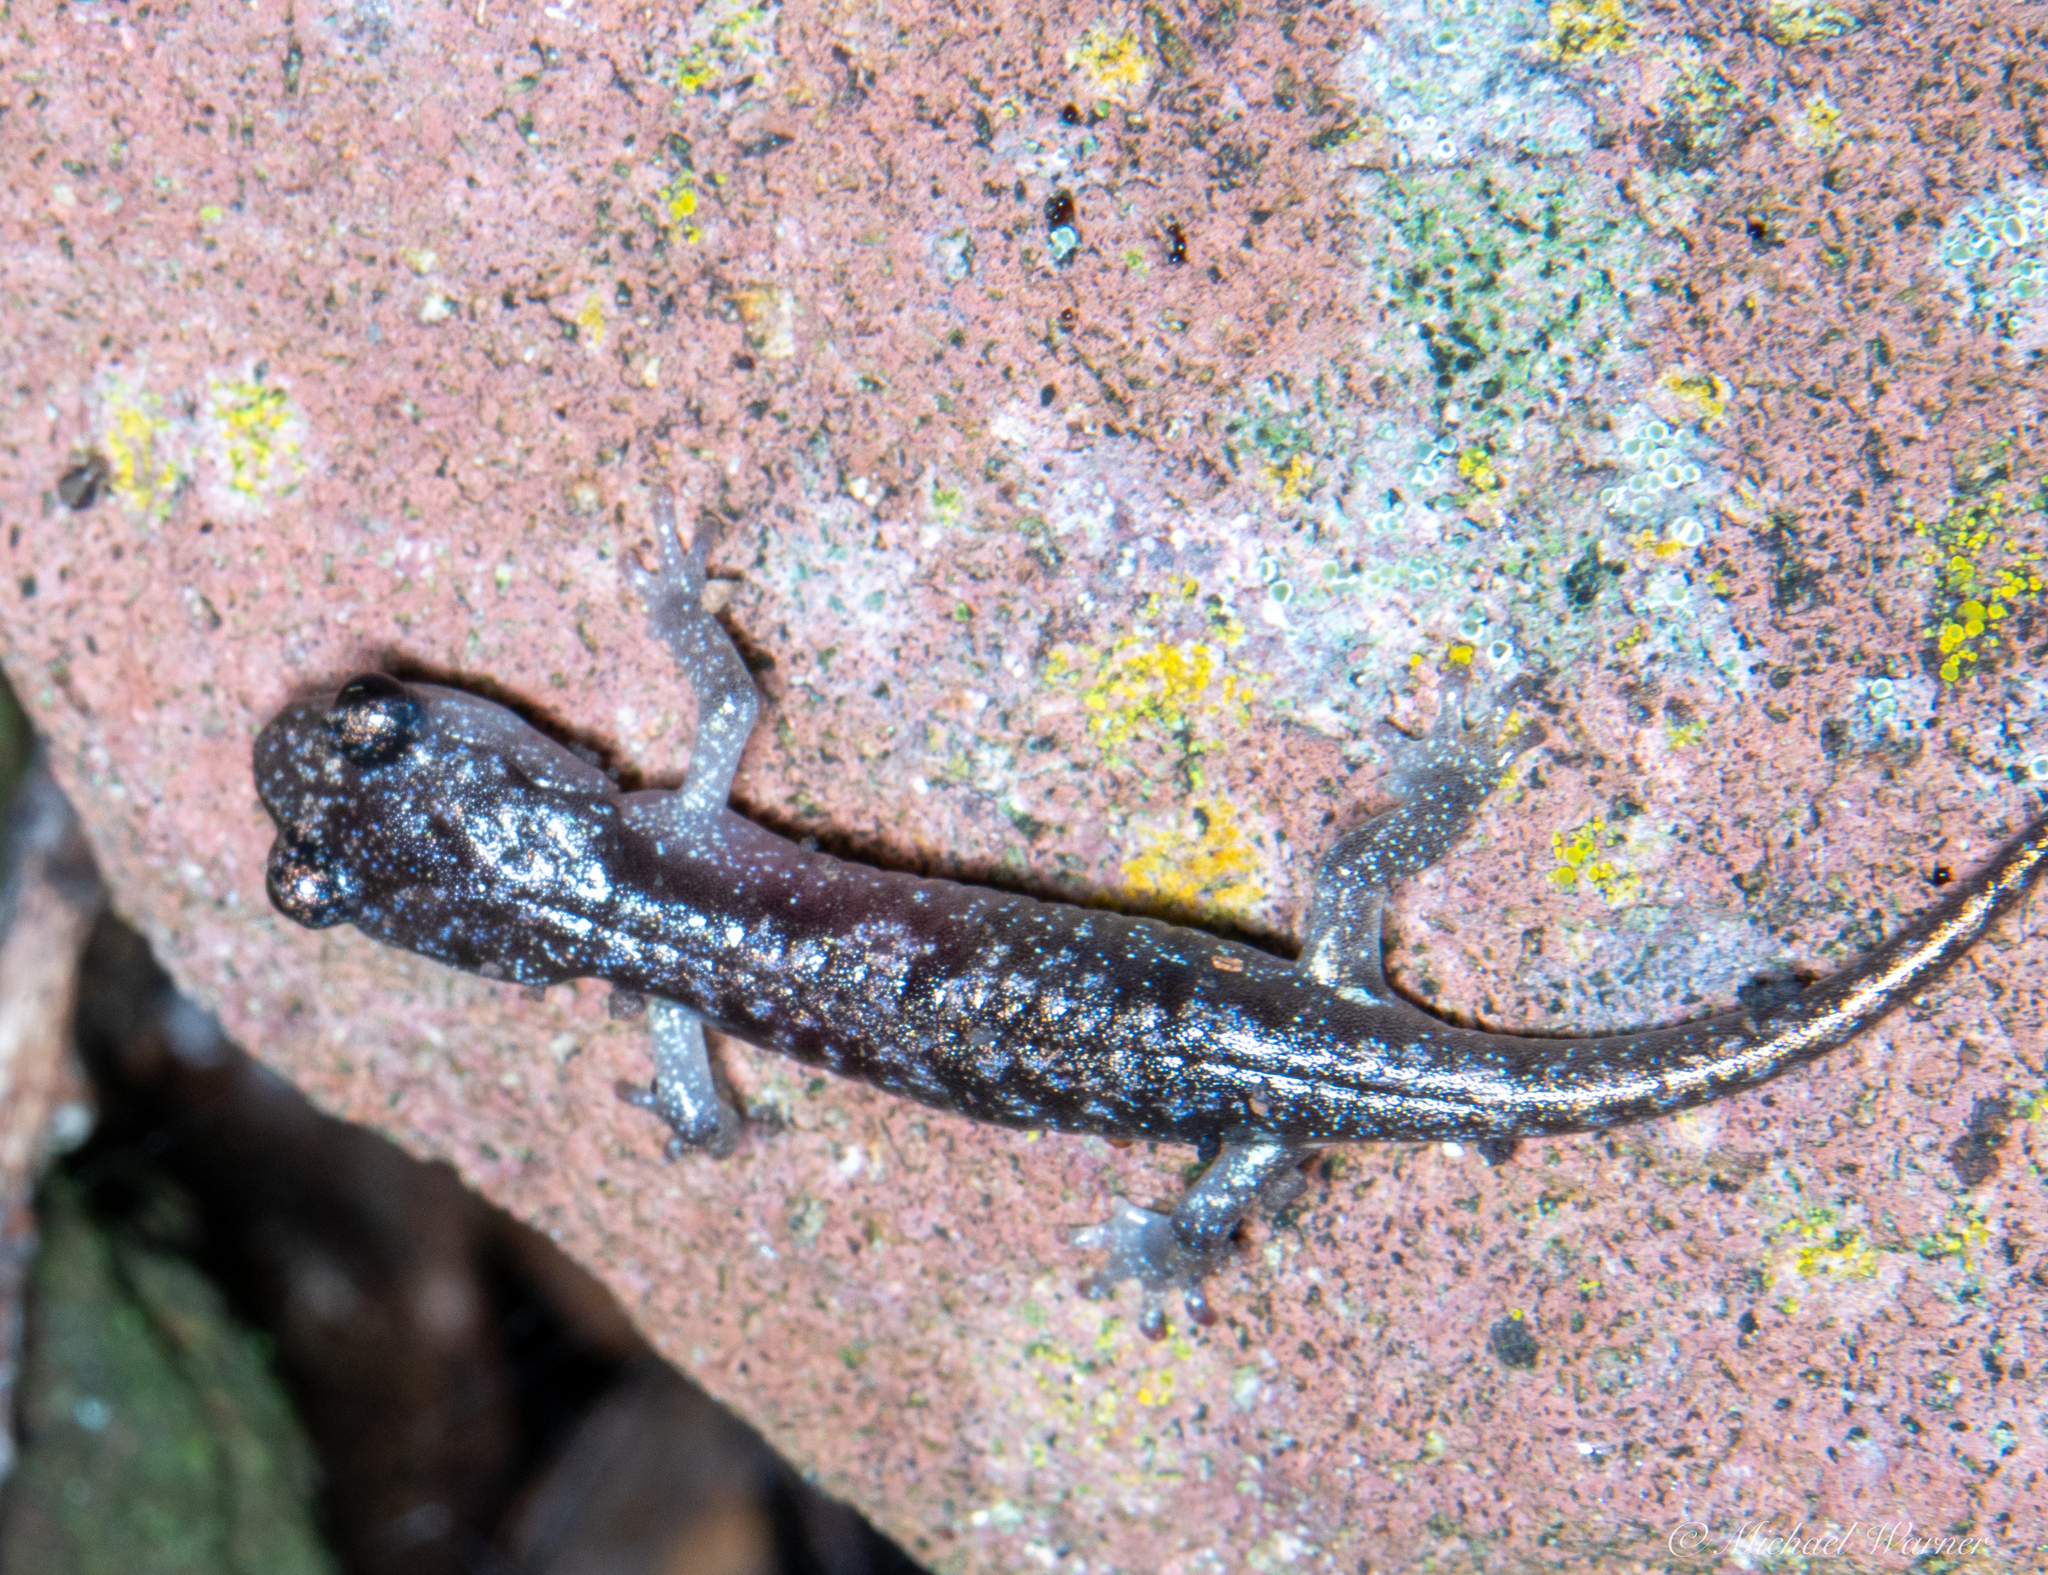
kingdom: Animalia
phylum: Chordata
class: Amphibia
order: Caudata
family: Plethodontidae
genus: Aneides
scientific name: Aneides lugubris
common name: Arboreal salamander
